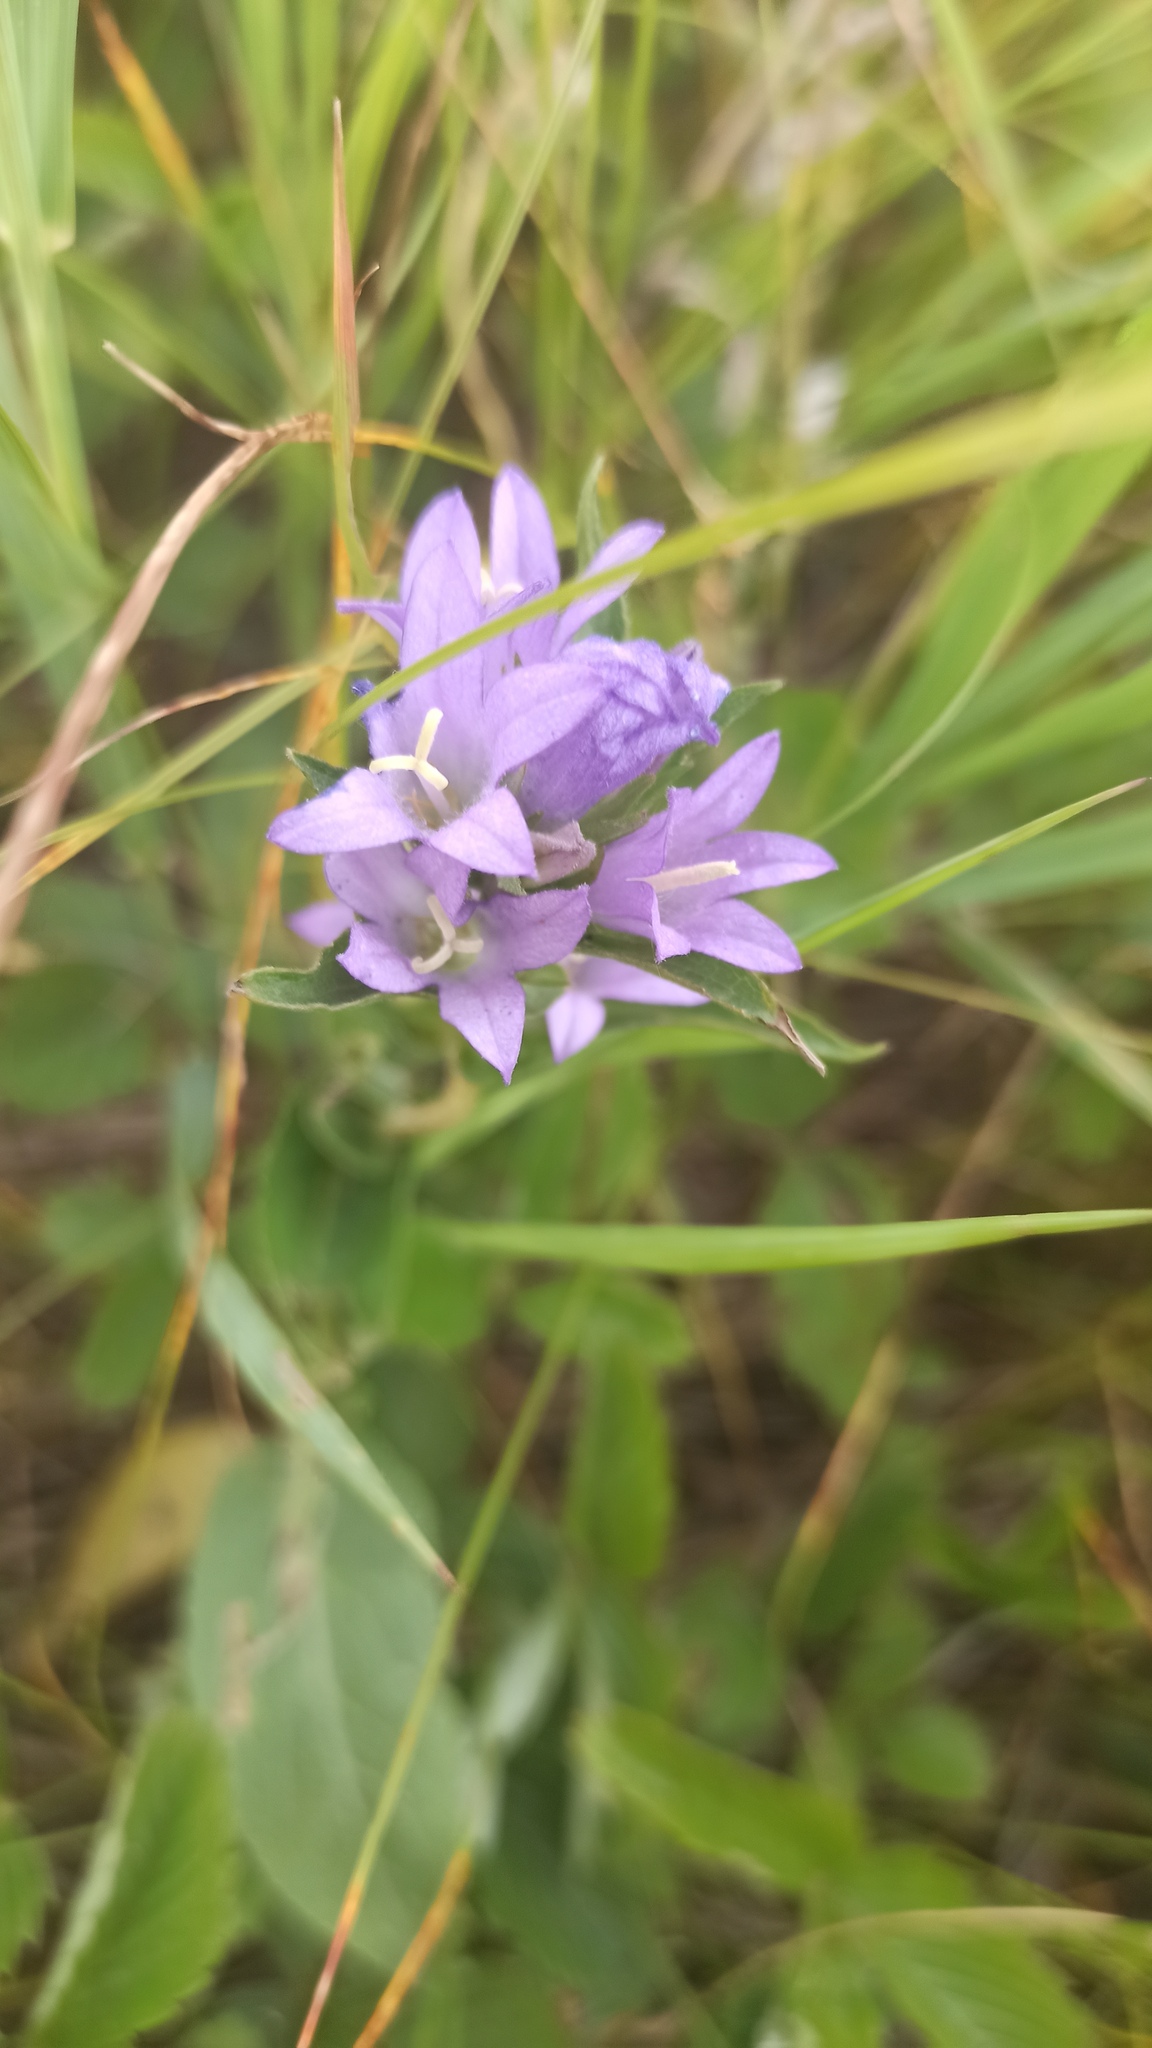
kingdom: Plantae
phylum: Tracheophyta
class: Magnoliopsida
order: Asterales
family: Campanulaceae
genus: Campanula
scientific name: Campanula glomerata
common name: Clustered bellflower
